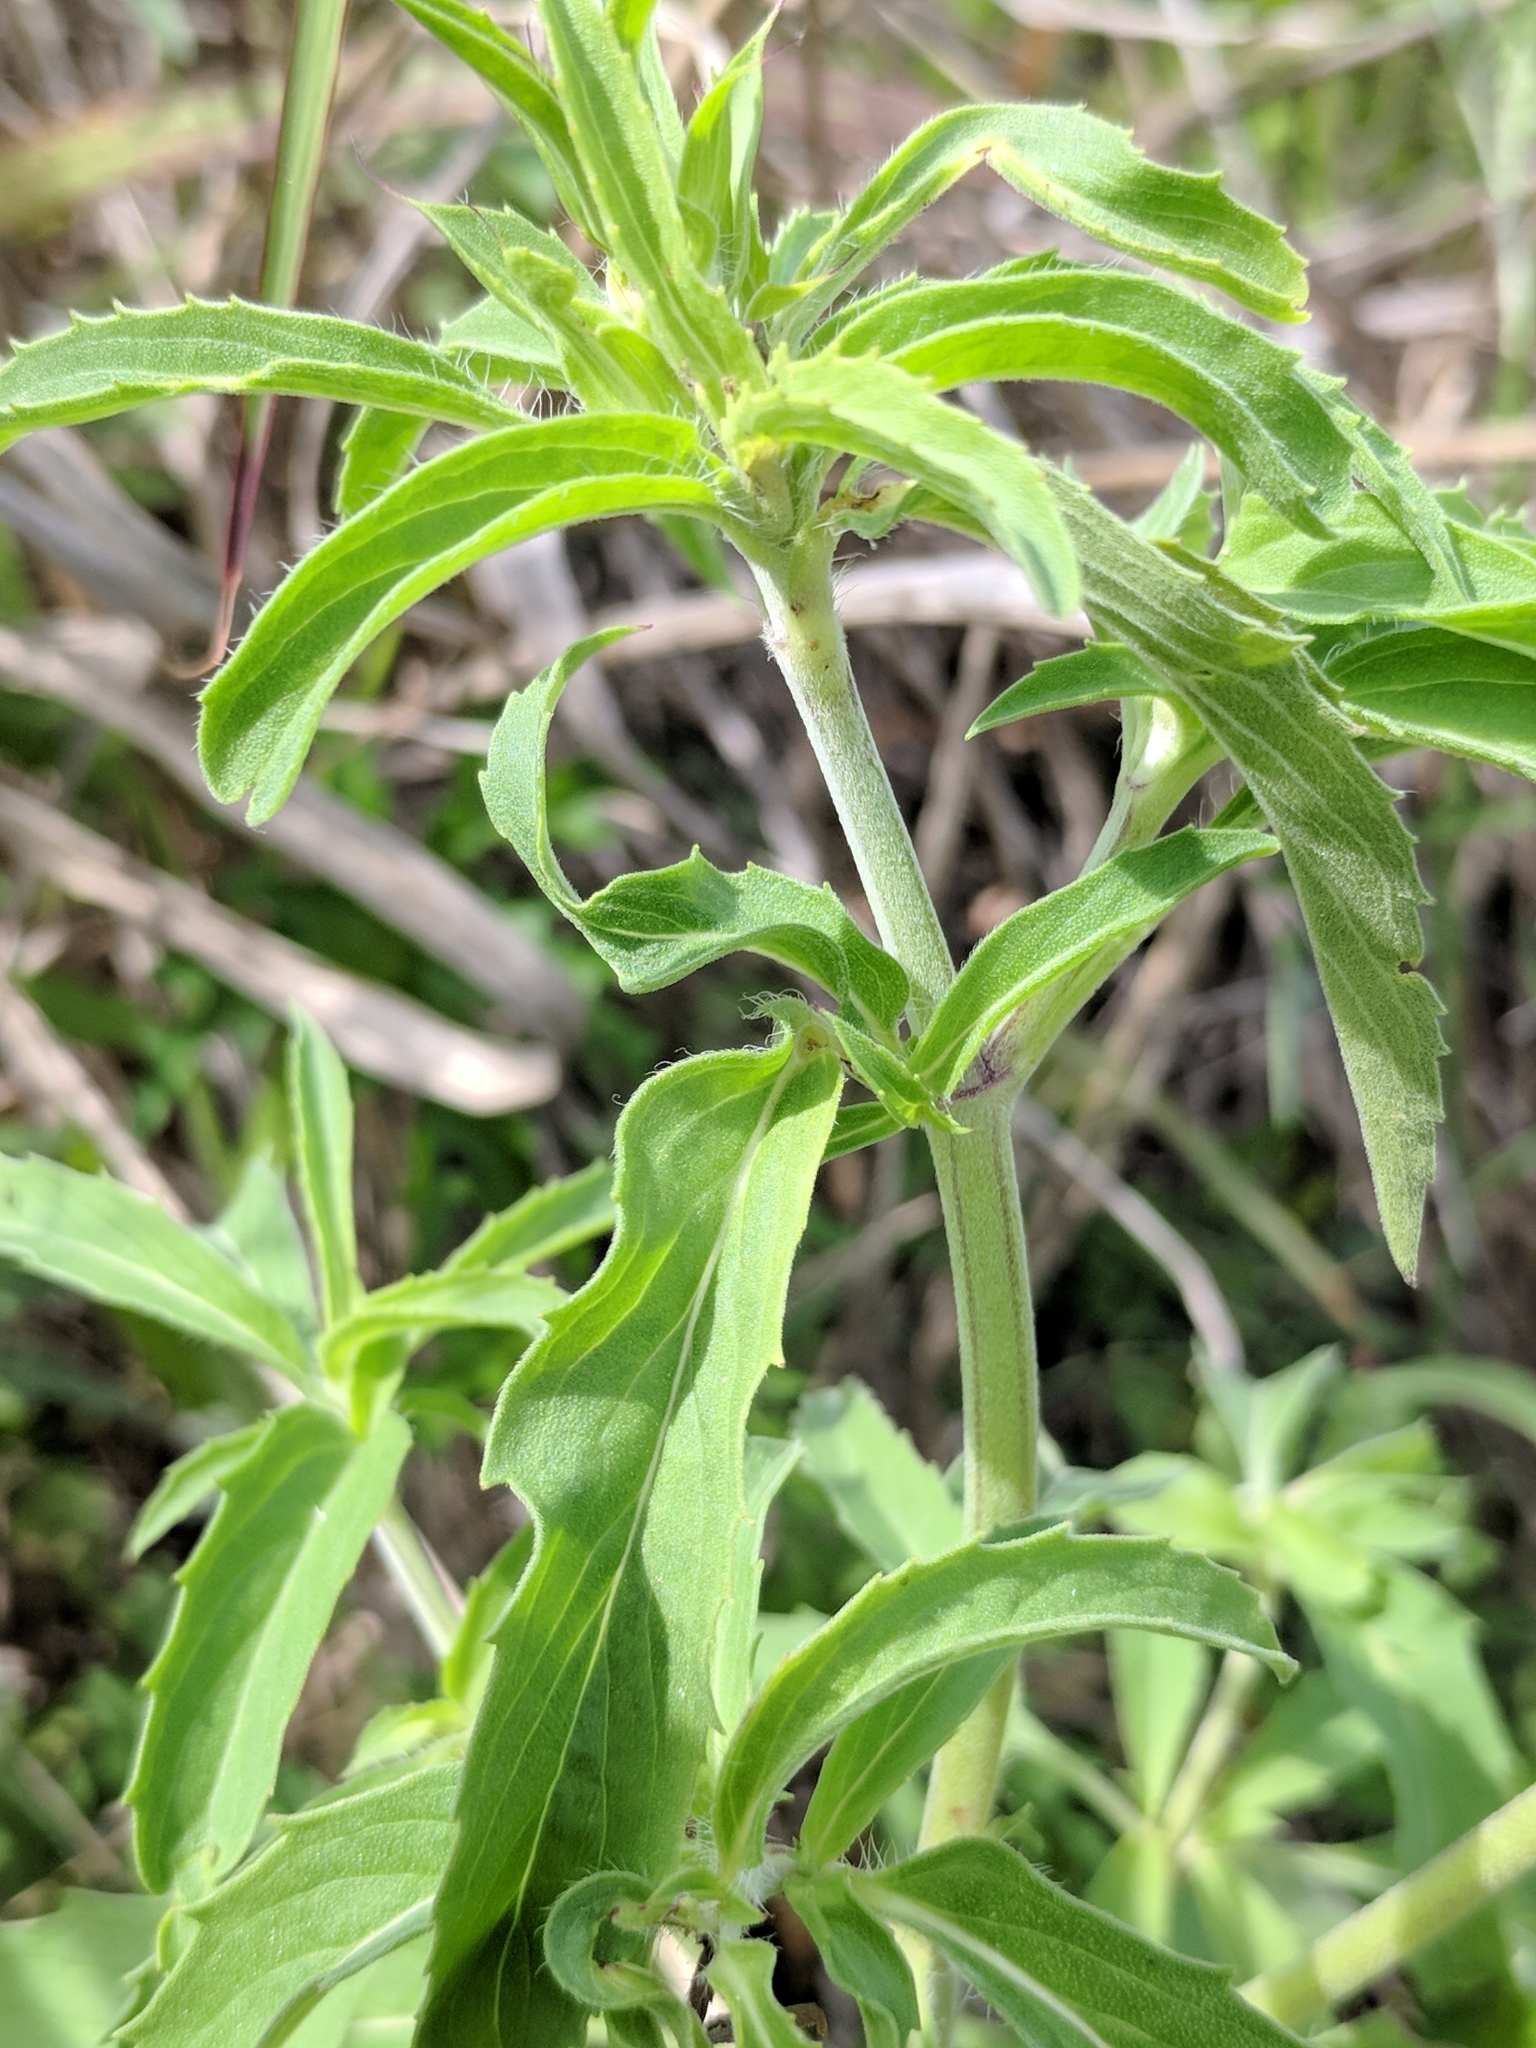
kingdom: Plantae
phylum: Tracheophyta
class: Magnoliopsida
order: Lamiales
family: Lamiaceae
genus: Monarda
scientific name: Monarda citriodora
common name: Lemon beebalm
